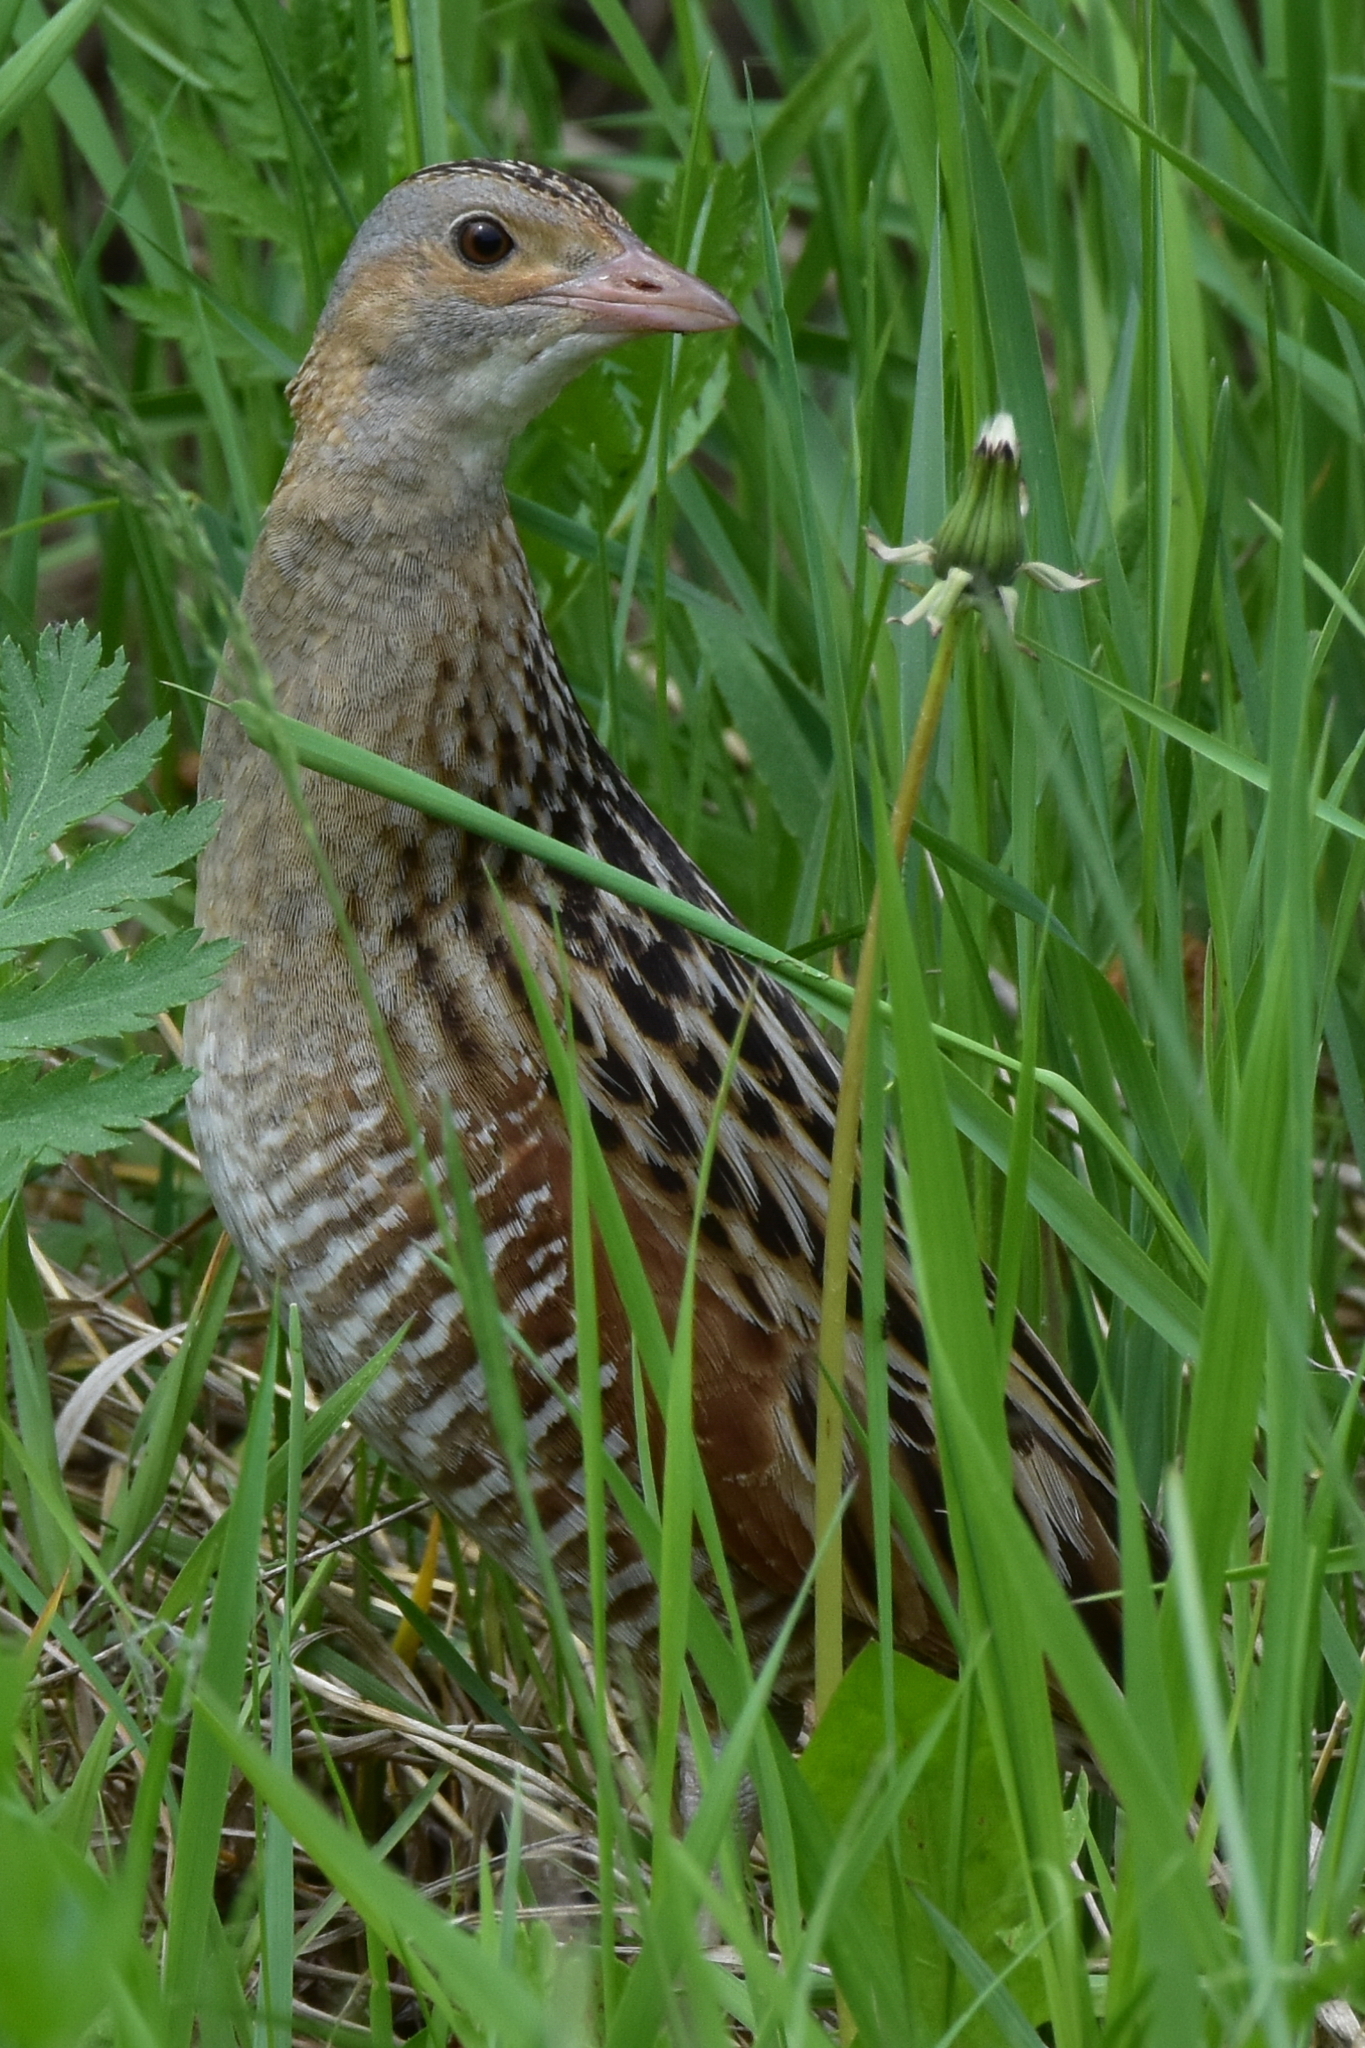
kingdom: Animalia
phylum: Chordata
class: Aves
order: Gruiformes
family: Rallidae
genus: Crex
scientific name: Crex crex
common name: Corn crake
